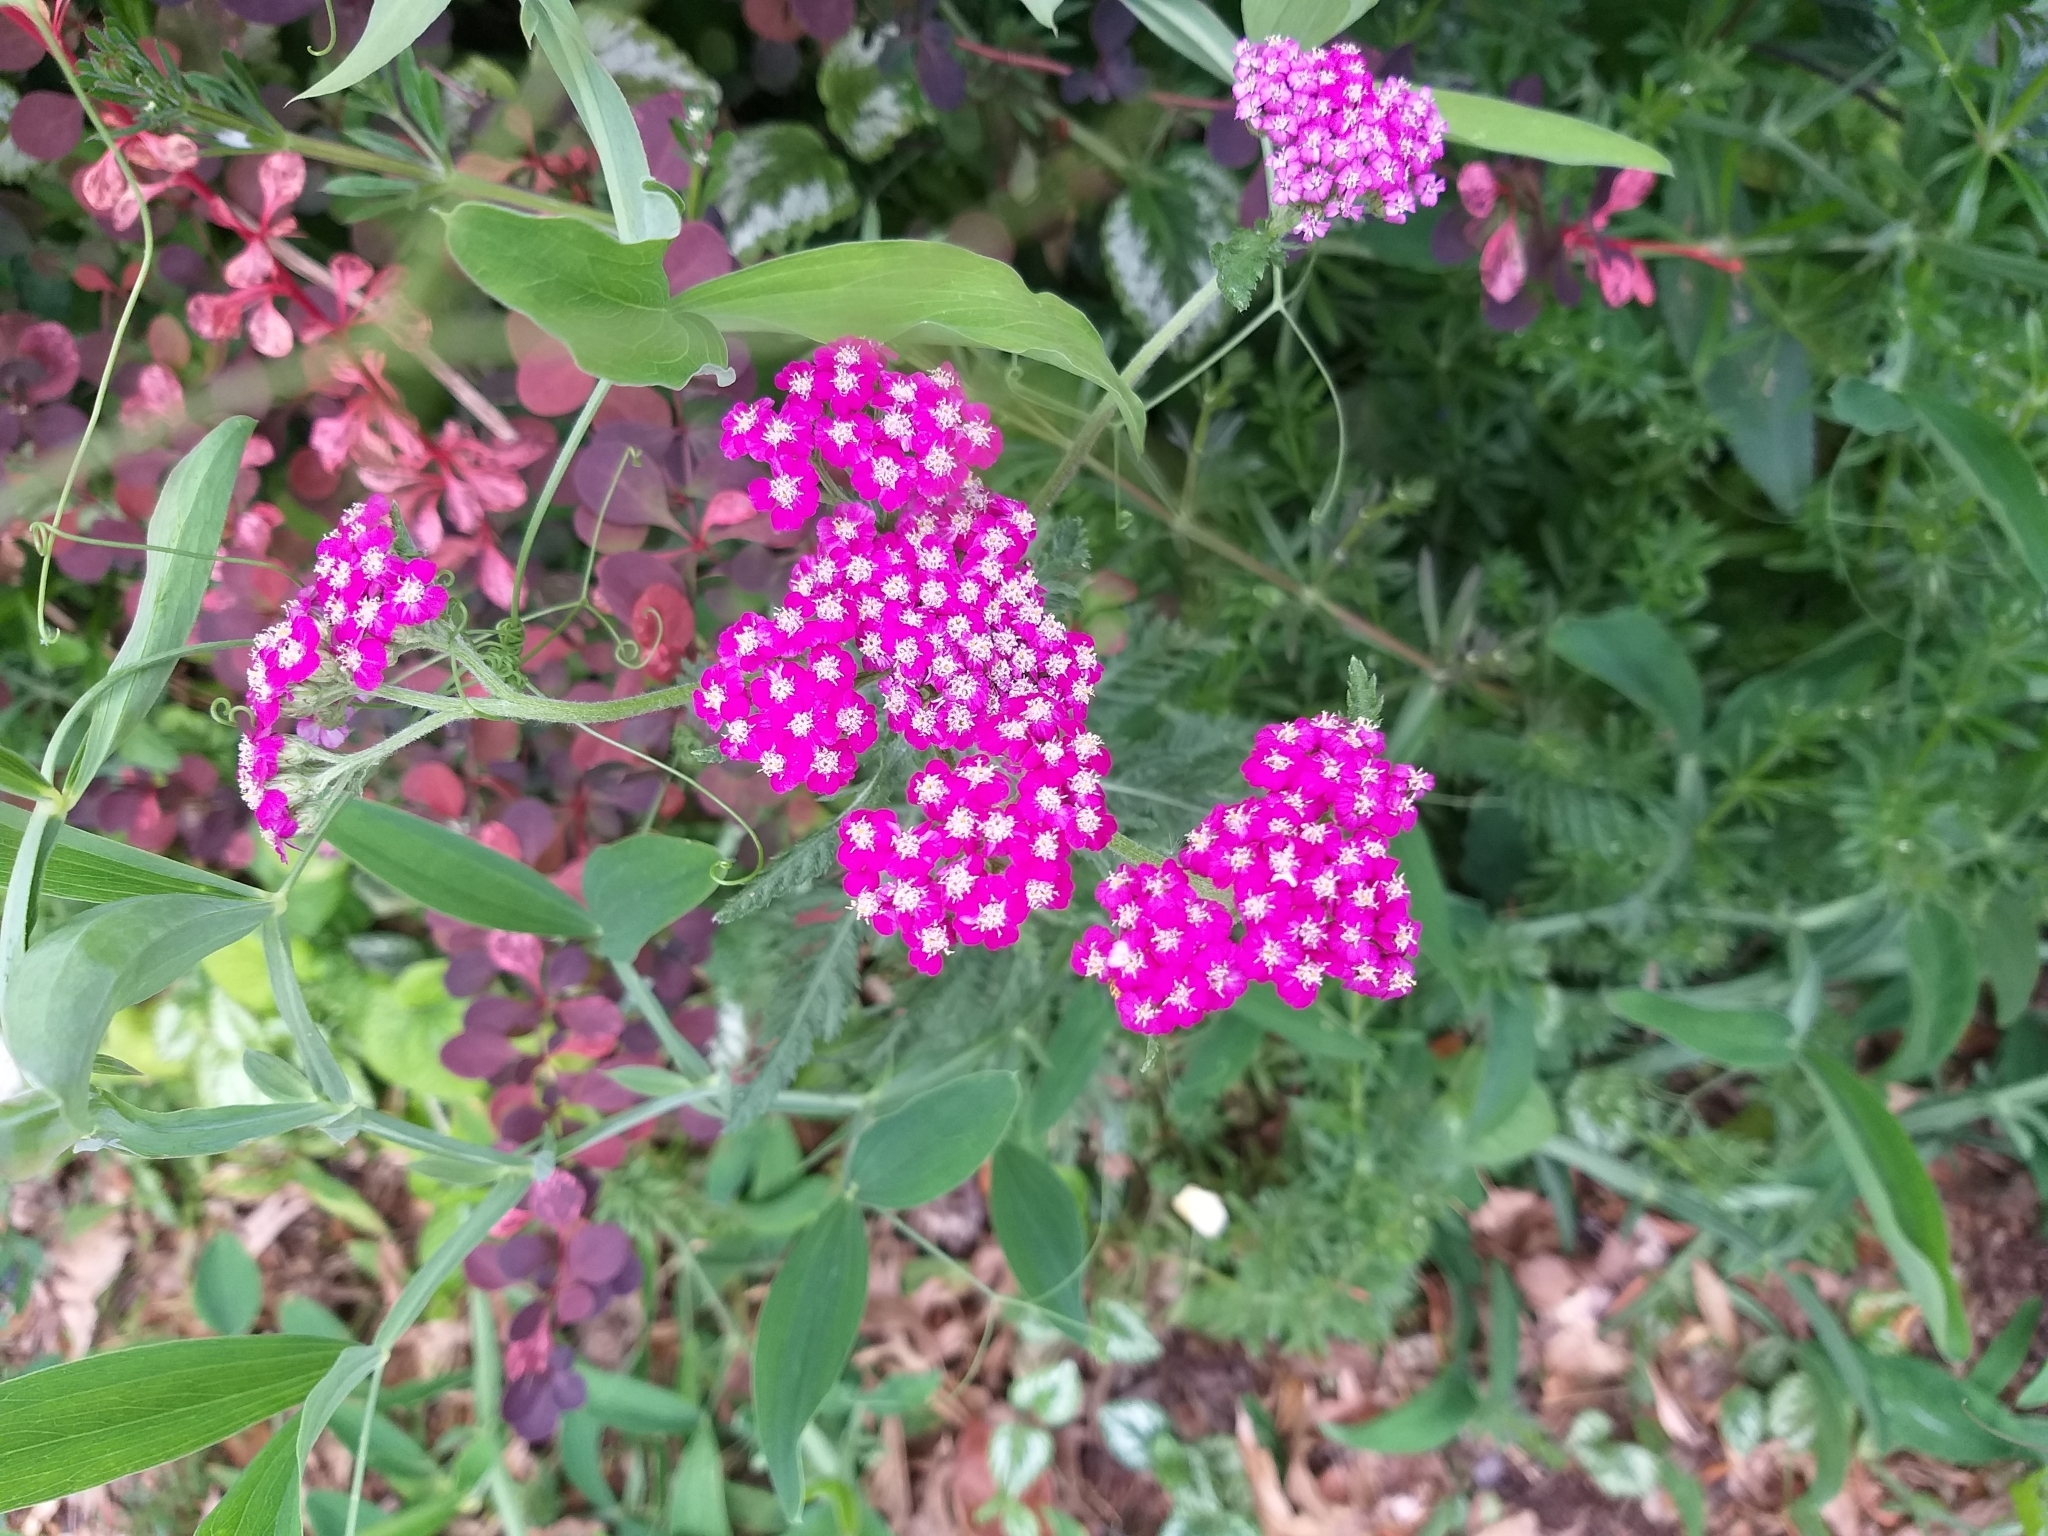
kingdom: Plantae
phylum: Tracheophyta
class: Magnoliopsida
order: Asterales
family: Asteraceae
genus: Achillea
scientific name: Achillea millefolium
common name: Yarrow
